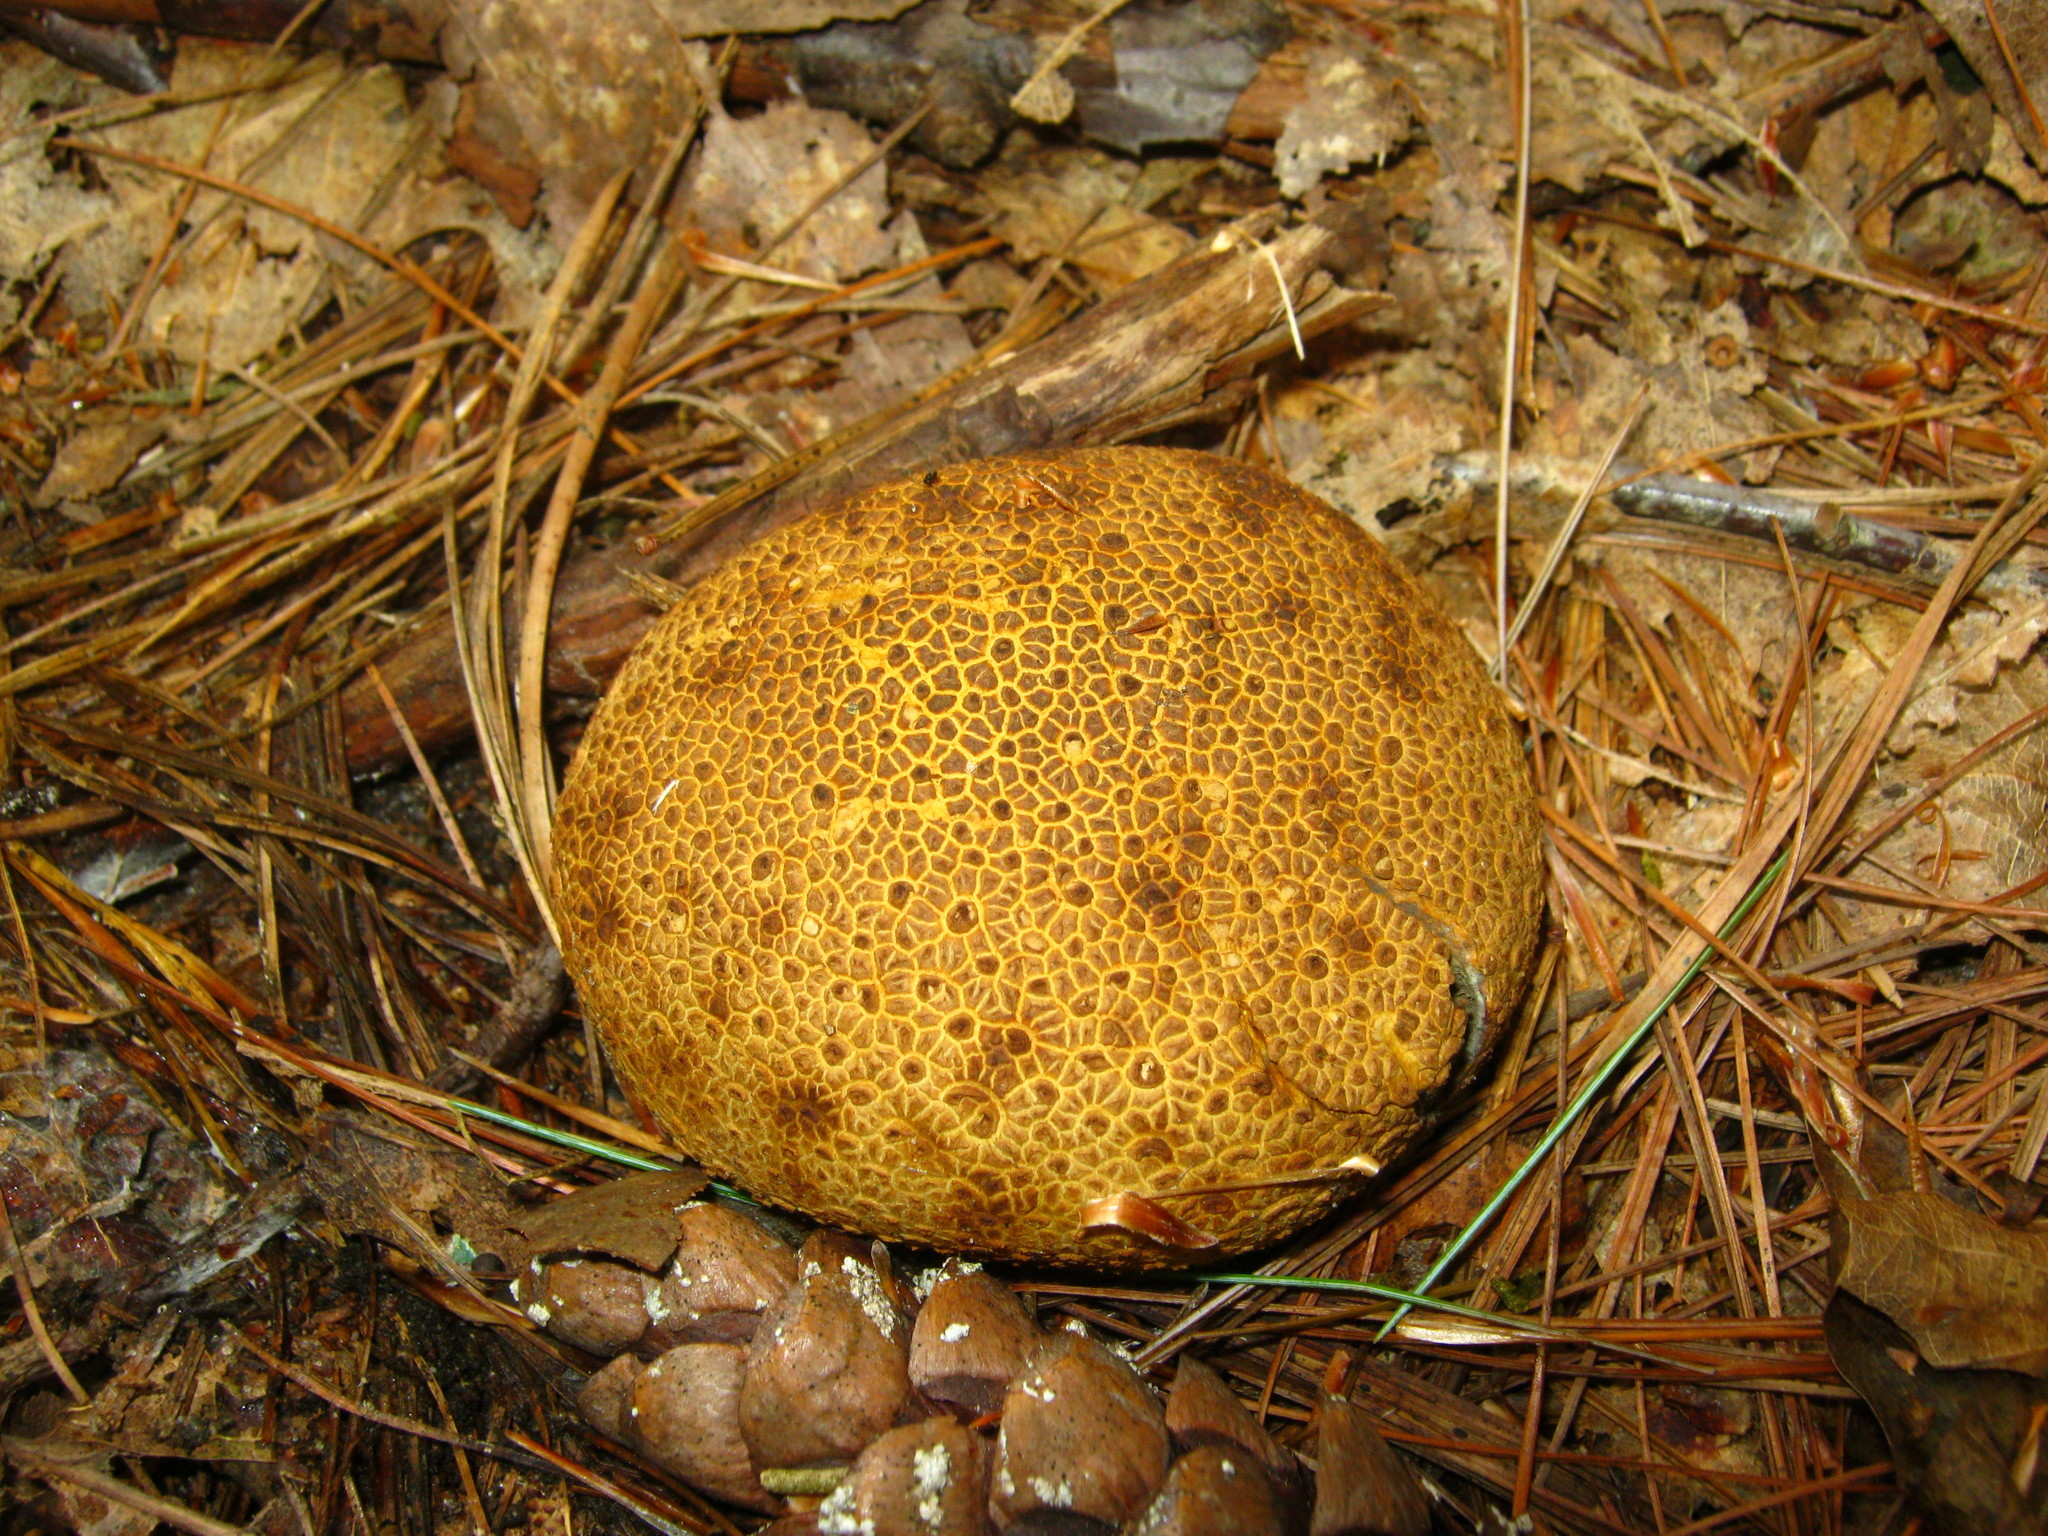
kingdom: Fungi
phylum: Basidiomycota
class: Agaricomycetes
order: Boletales
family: Sclerodermataceae
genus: Scleroderma
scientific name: Scleroderma citrinum
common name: Common earthball
